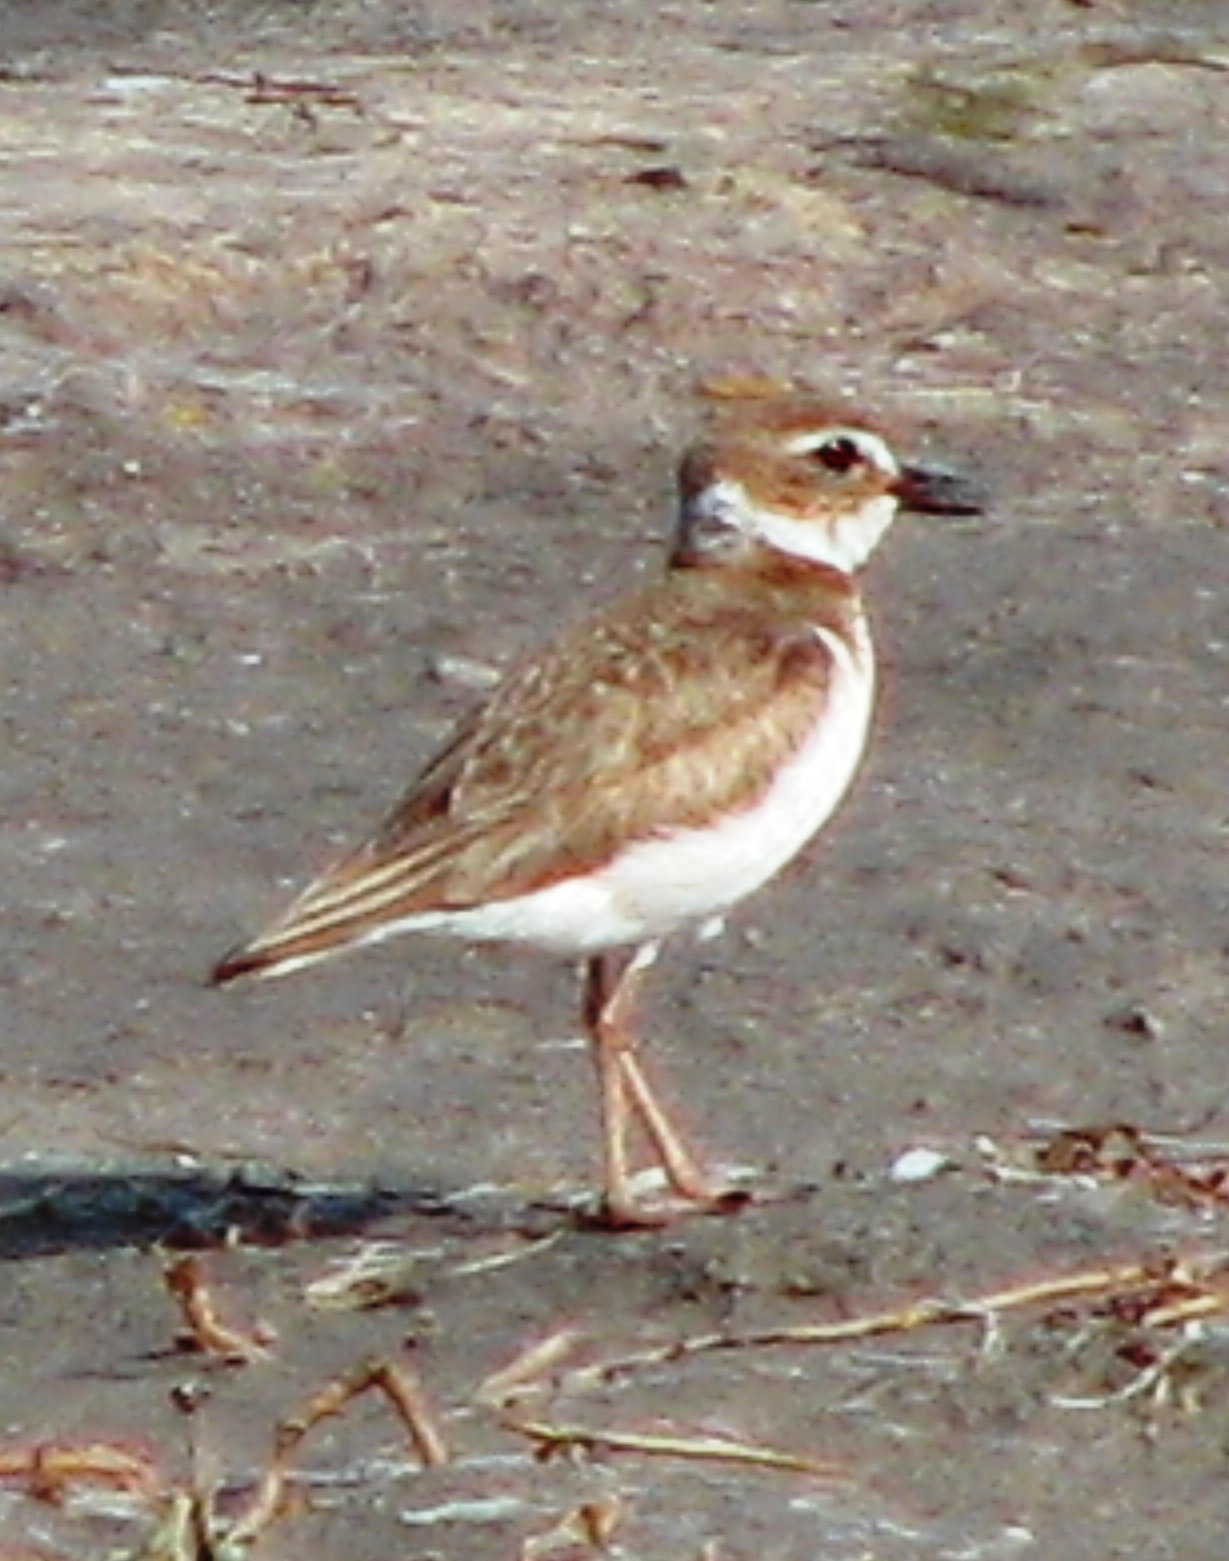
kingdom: Animalia
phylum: Chordata
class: Aves
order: Charadriiformes
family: Charadriidae
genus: Anarhynchus
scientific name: Anarhynchus
